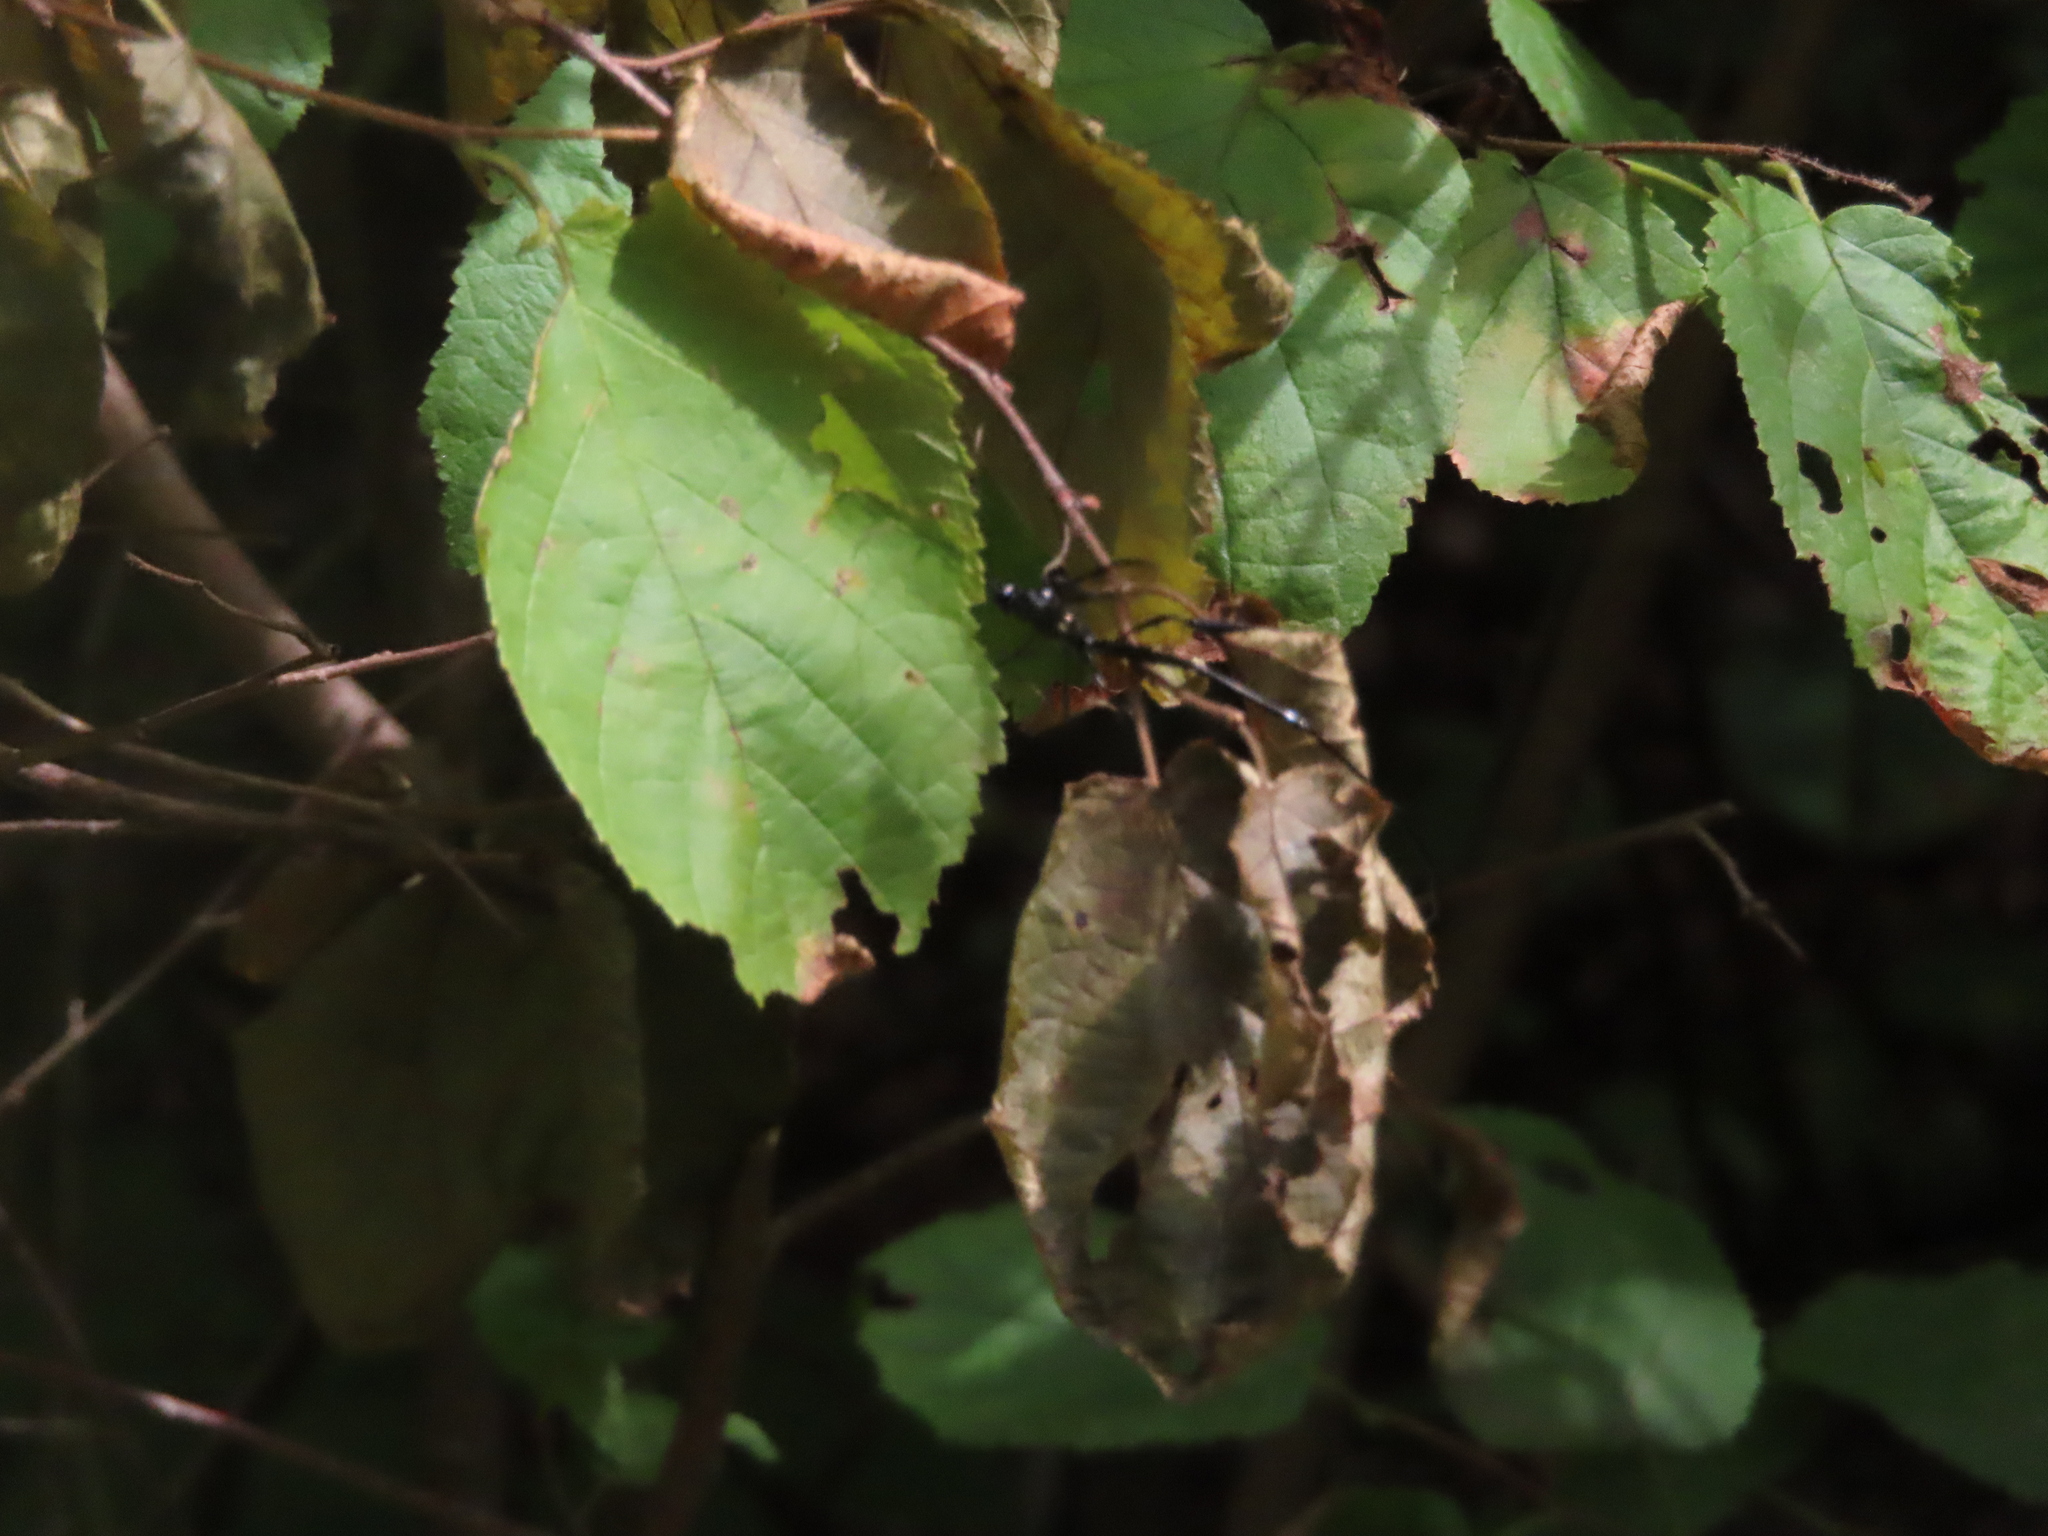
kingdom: Animalia
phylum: Arthropoda
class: Insecta
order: Hymenoptera
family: Pelecinidae
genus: Pelecinus
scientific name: Pelecinus polyturator
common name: American pelecinid wasp
